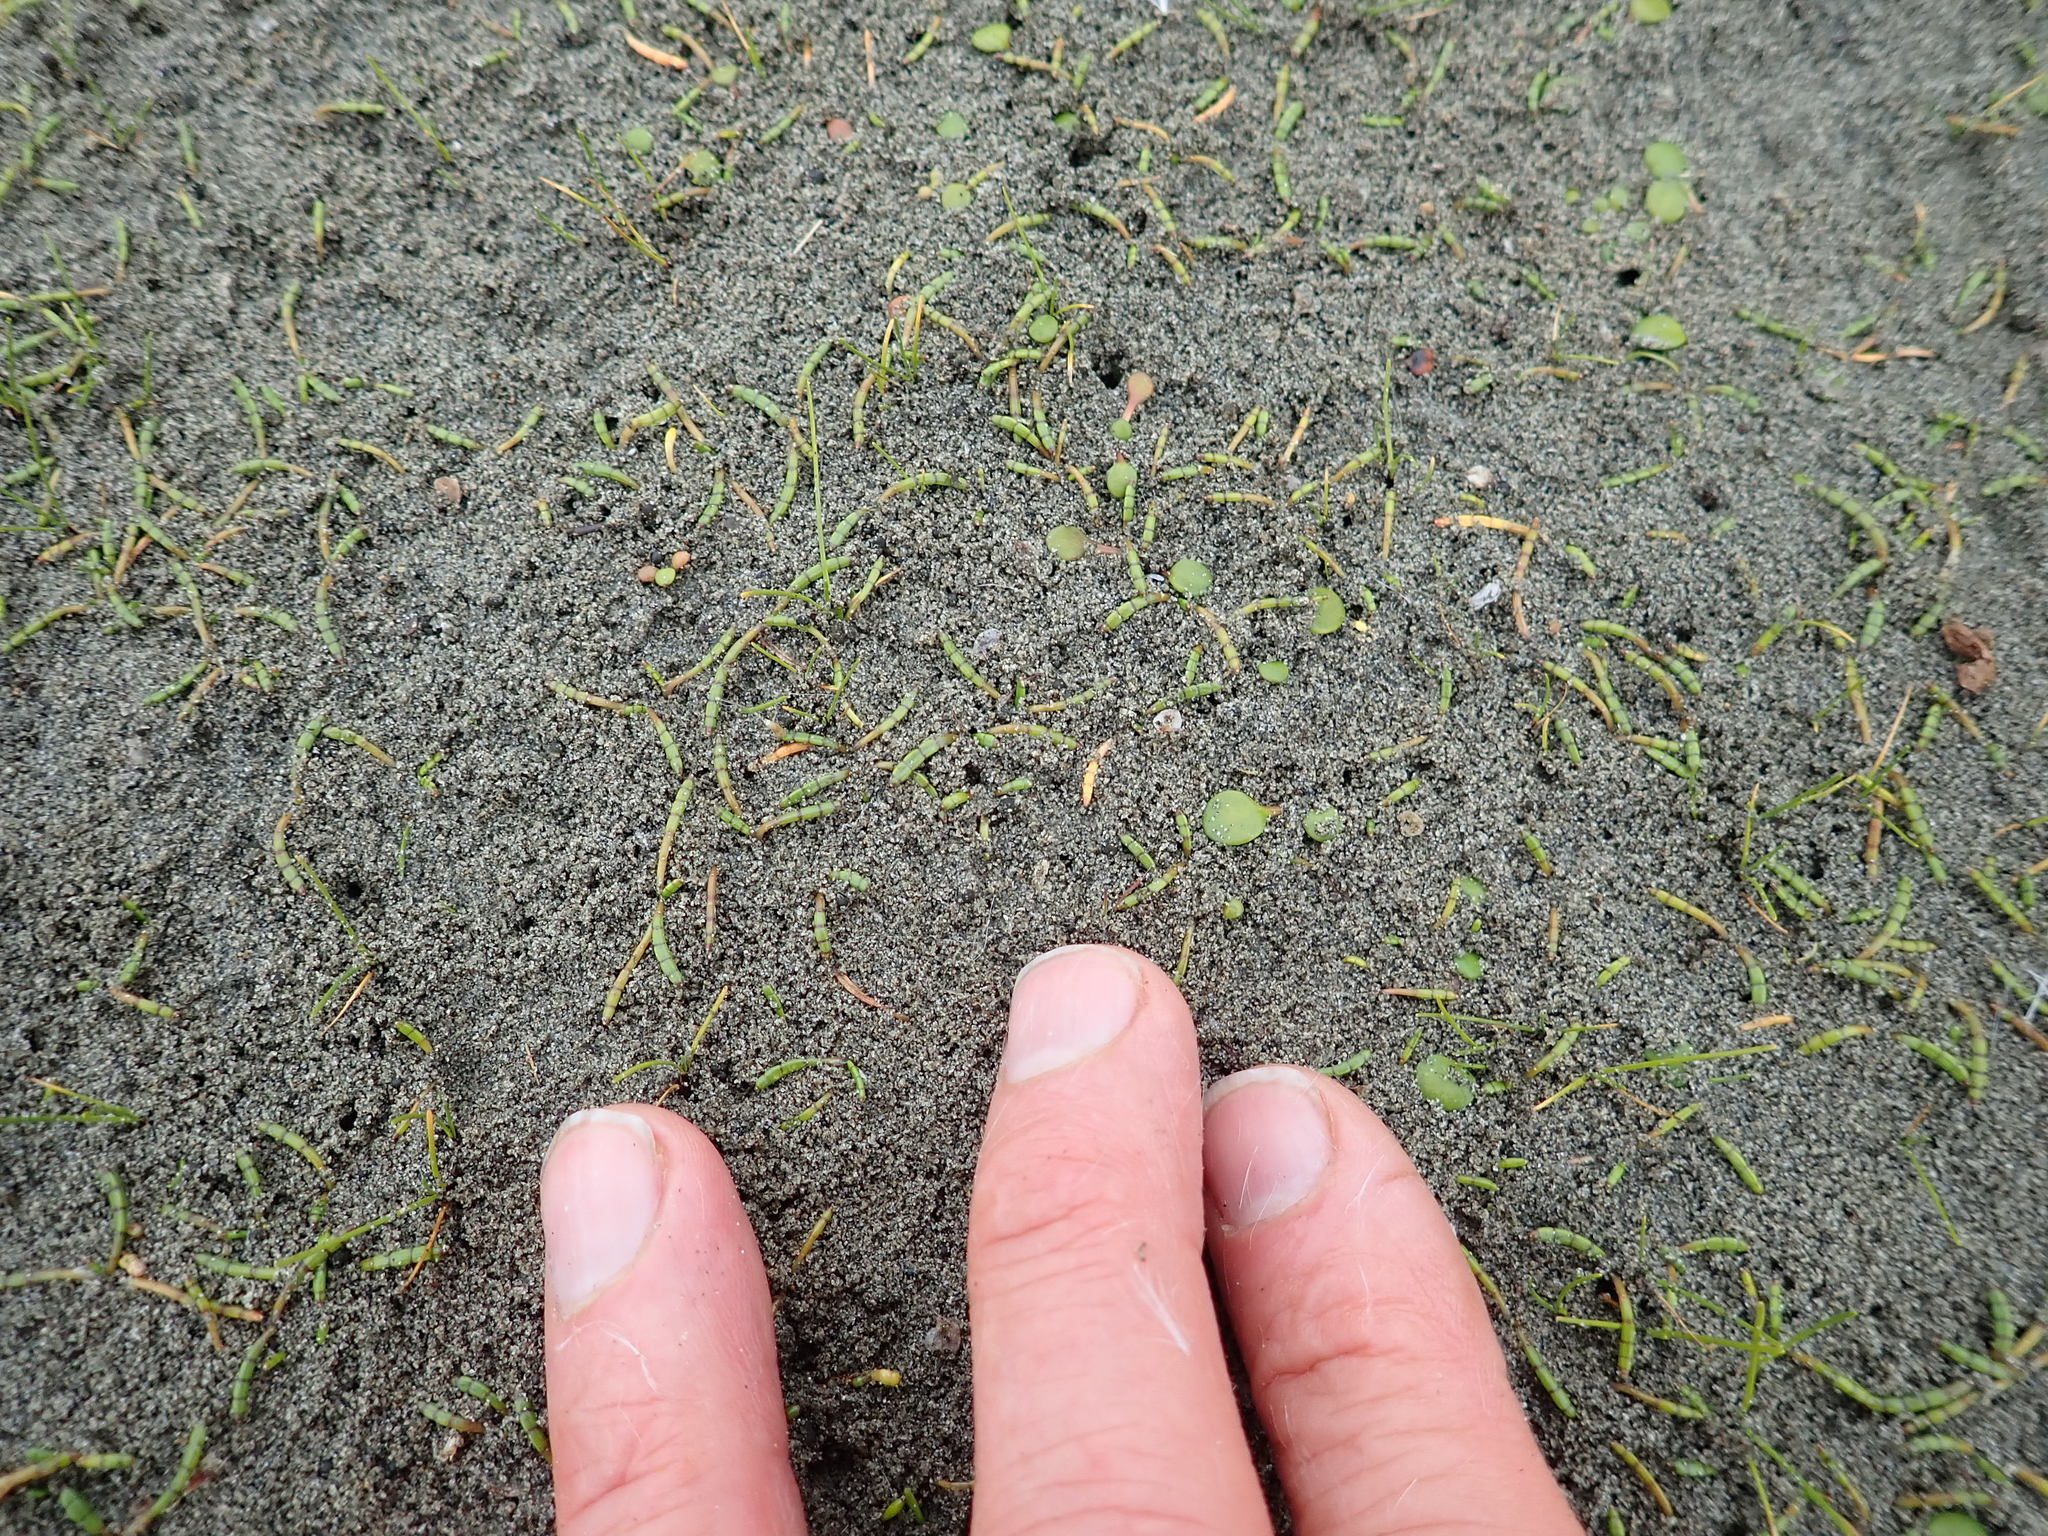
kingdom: Plantae
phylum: Tracheophyta
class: Magnoliopsida
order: Apiales
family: Apiaceae
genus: Lilaeopsis
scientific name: Lilaeopsis novae-zelandiae
